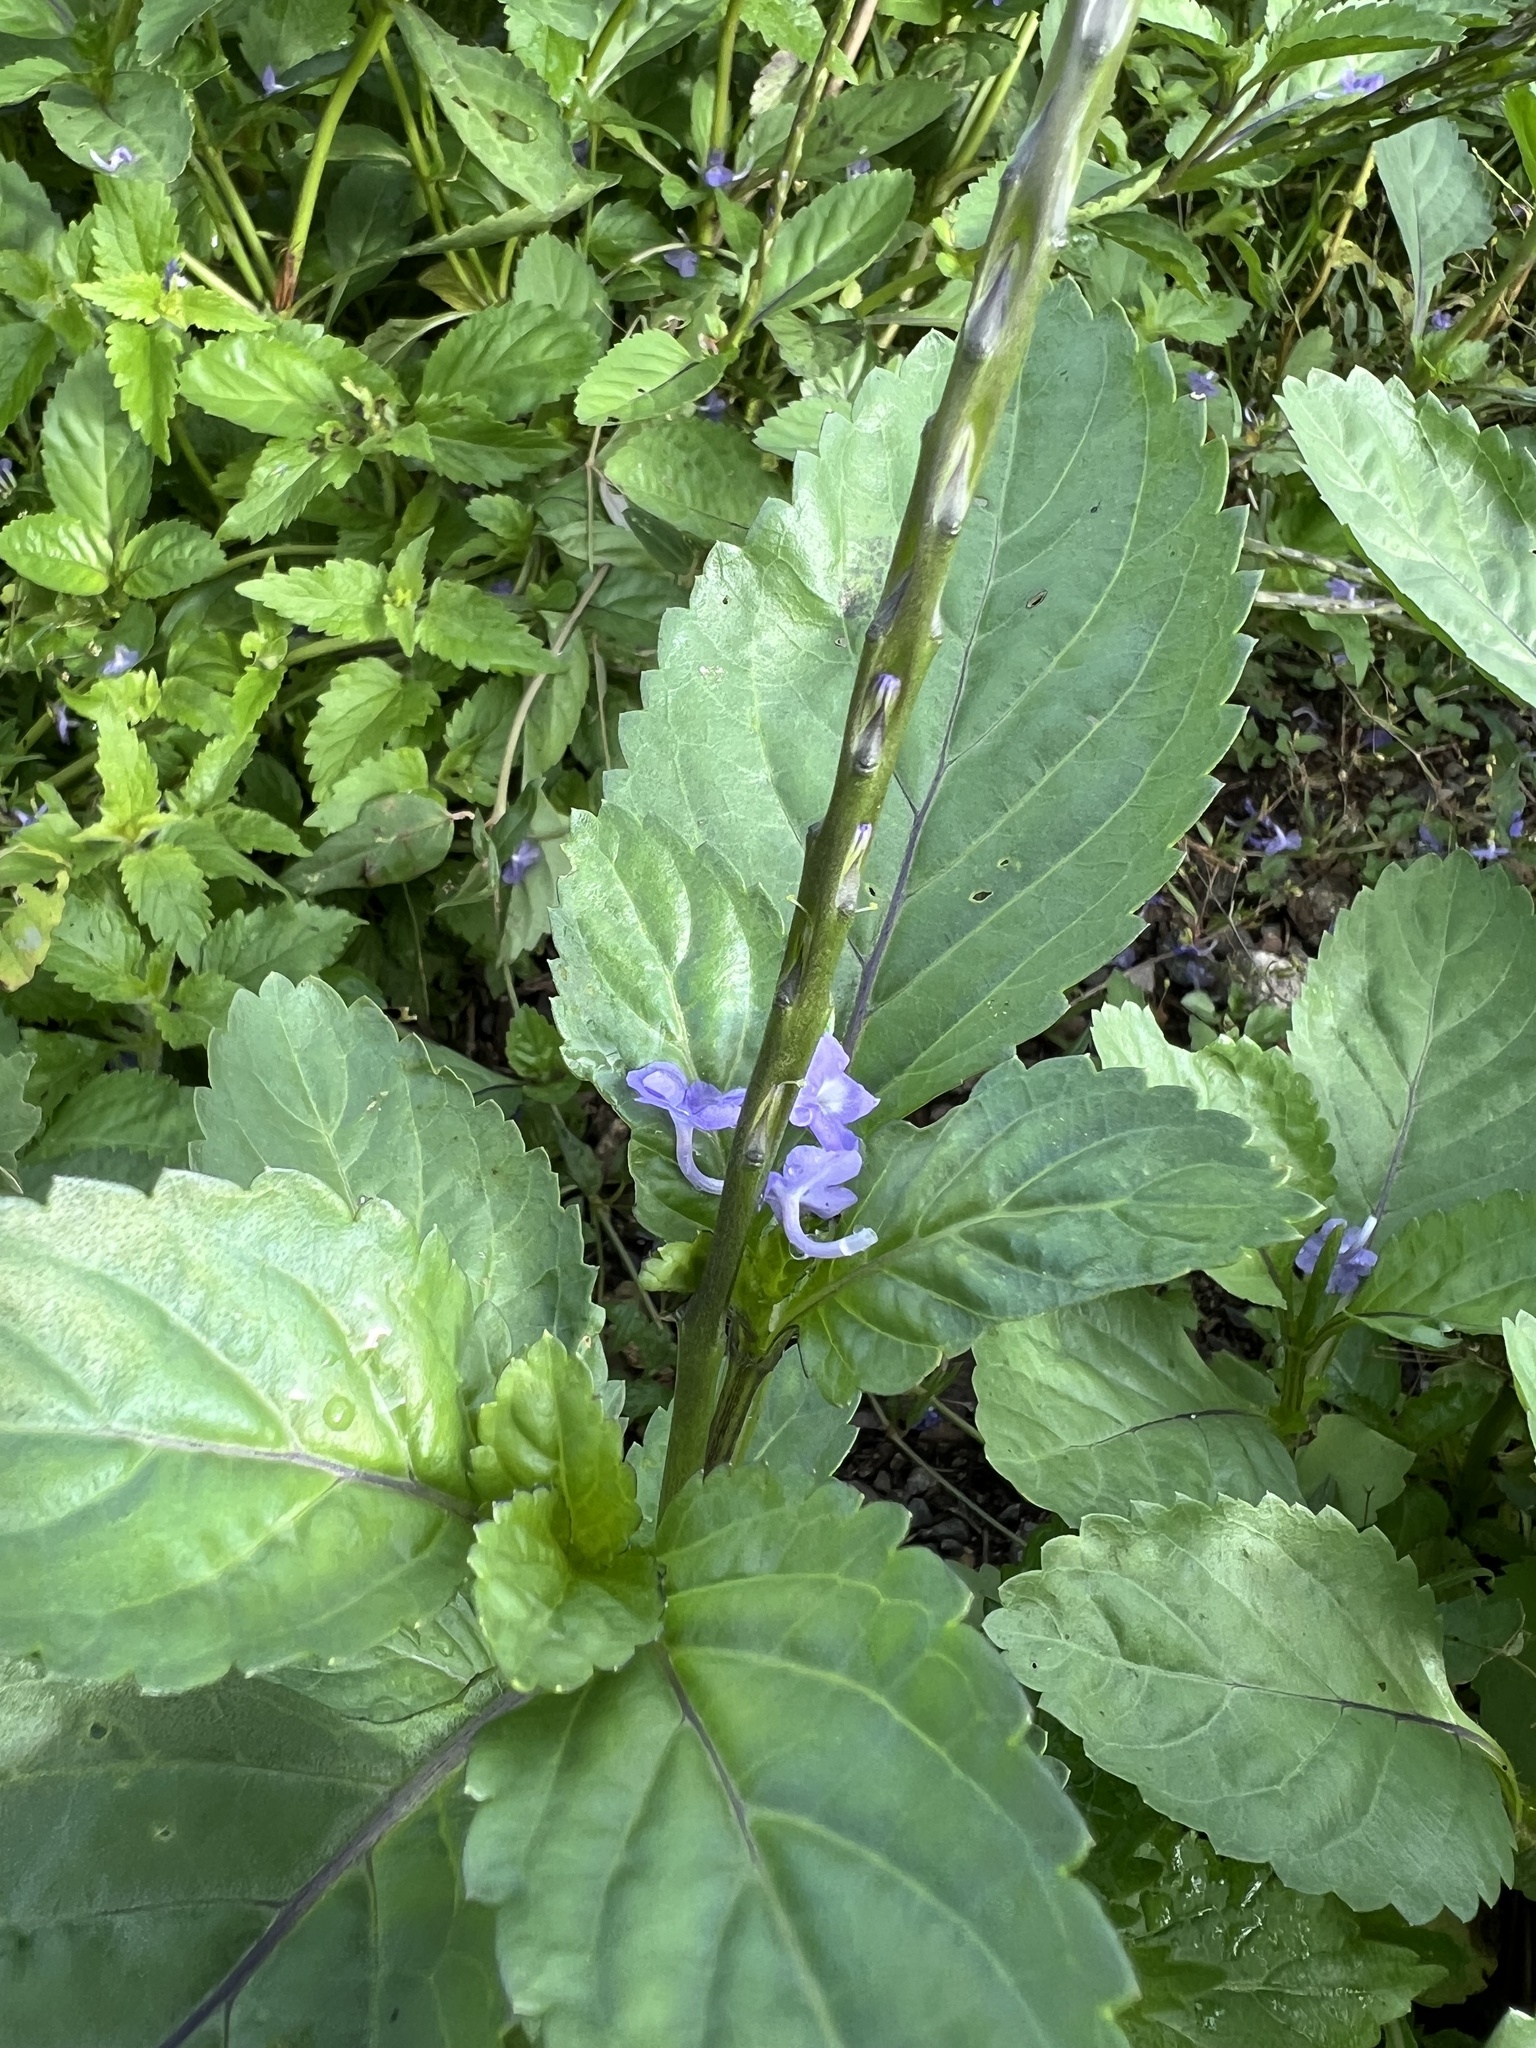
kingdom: Plantae
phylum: Tracheophyta
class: Magnoliopsida
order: Lamiales
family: Verbenaceae
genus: Stachytarpheta
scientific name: Stachytarpheta jamaicensis
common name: Light-blue snakeweed
